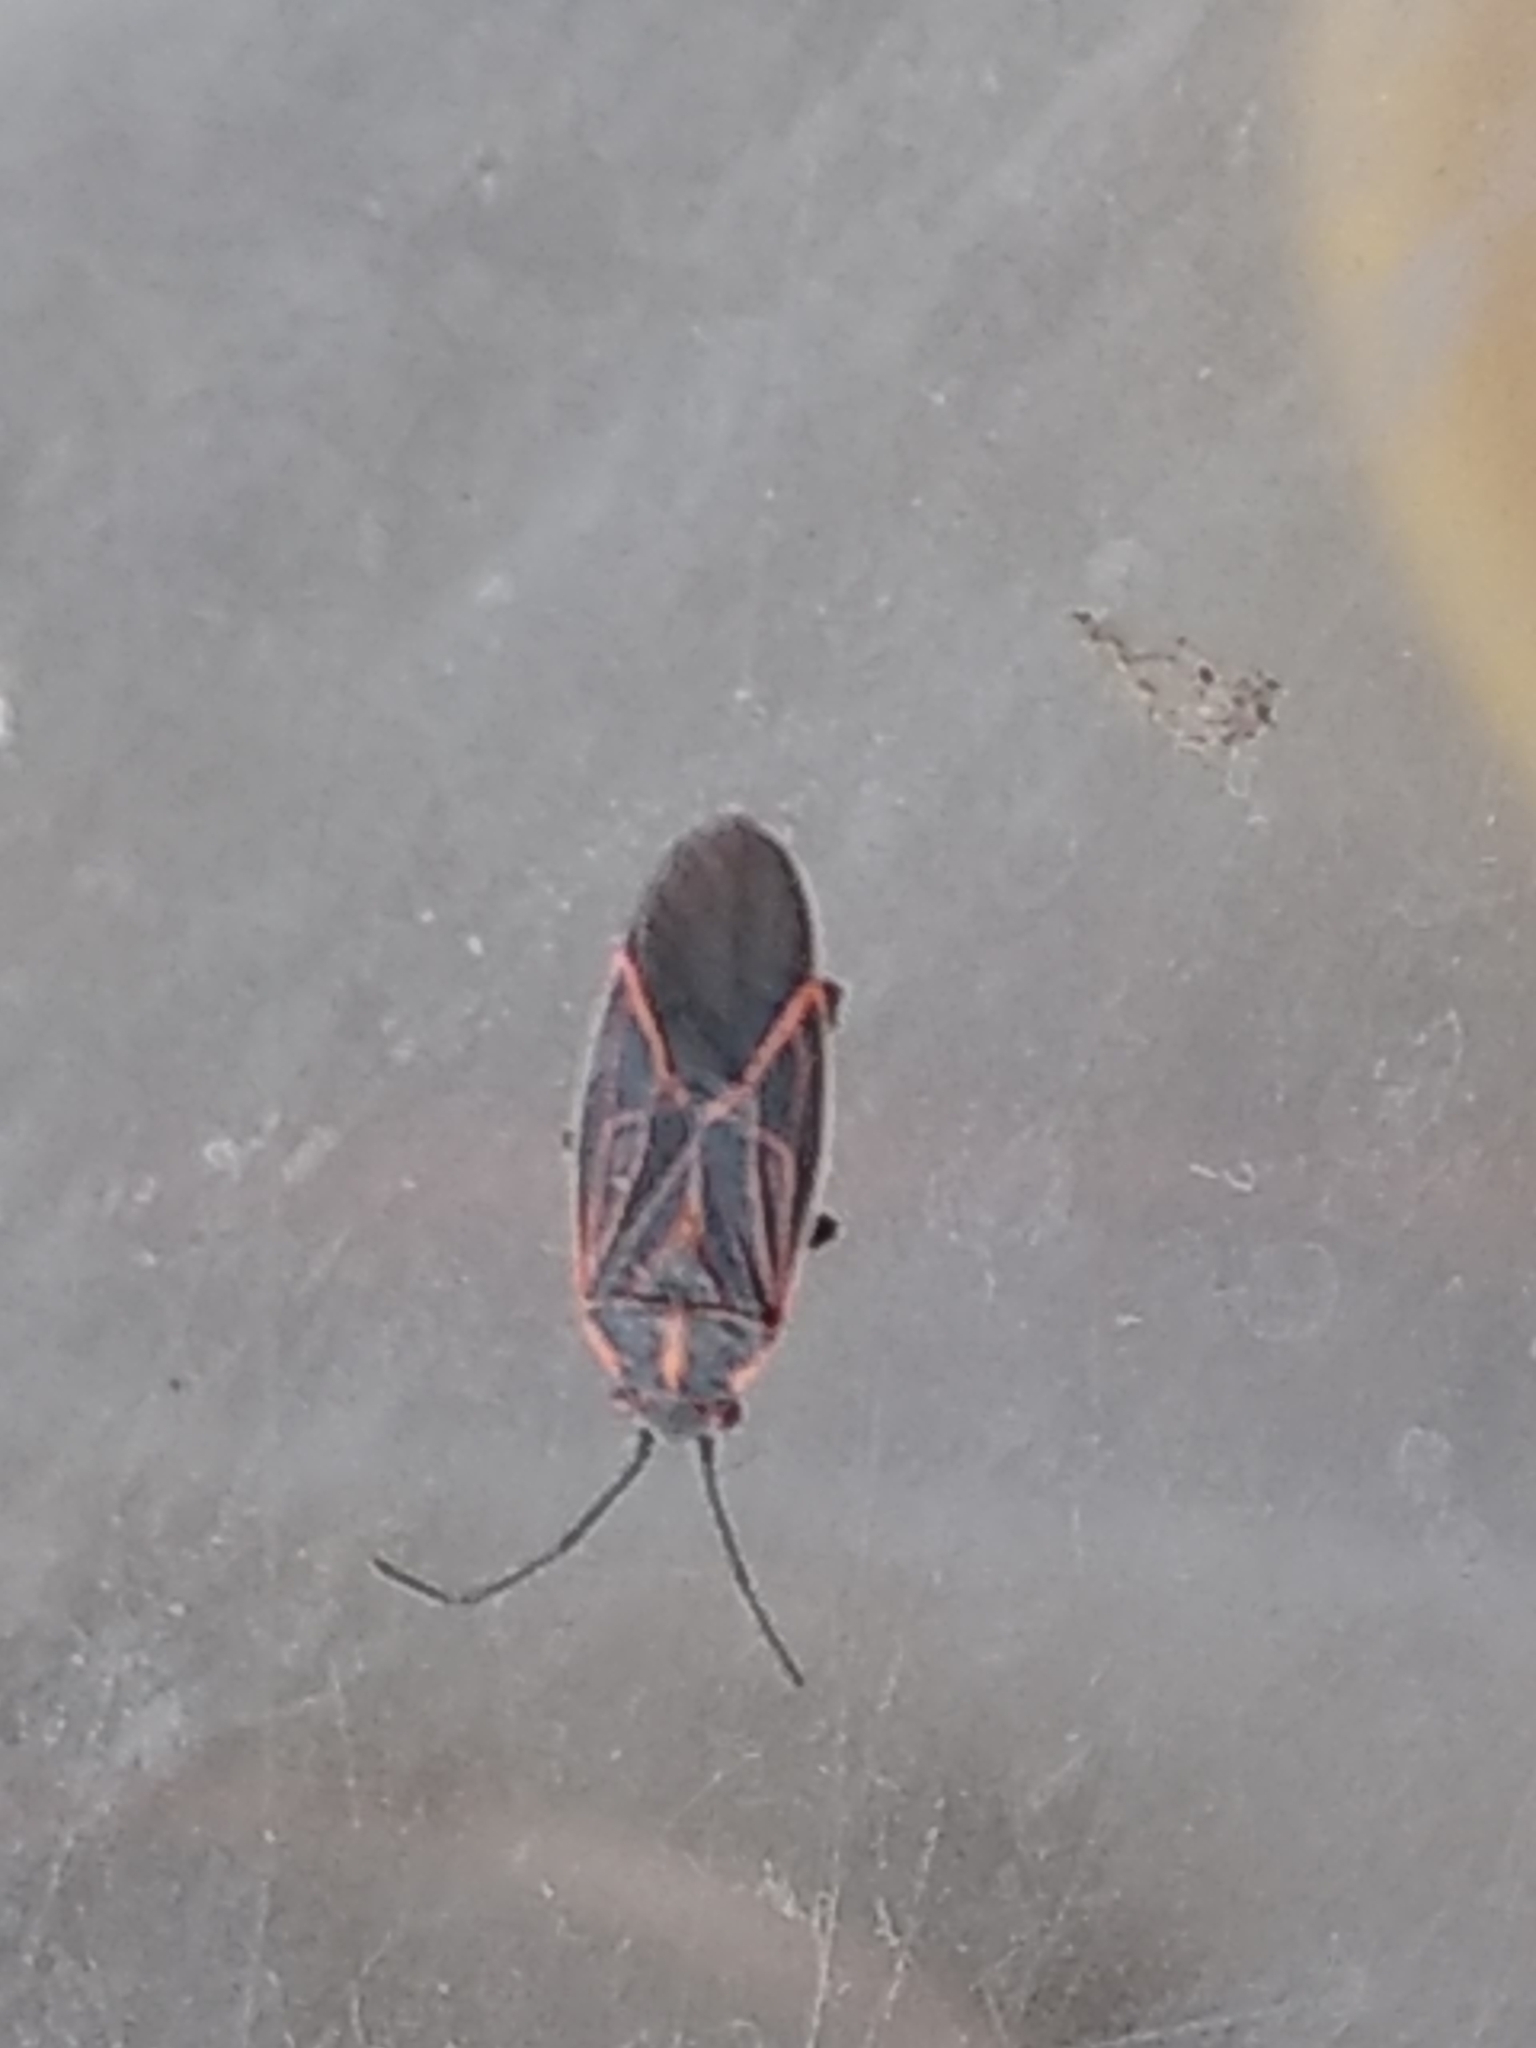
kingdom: Animalia
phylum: Arthropoda
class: Insecta
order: Hemiptera
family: Rhopalidae
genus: Boisea
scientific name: Boisea rubrolineata
